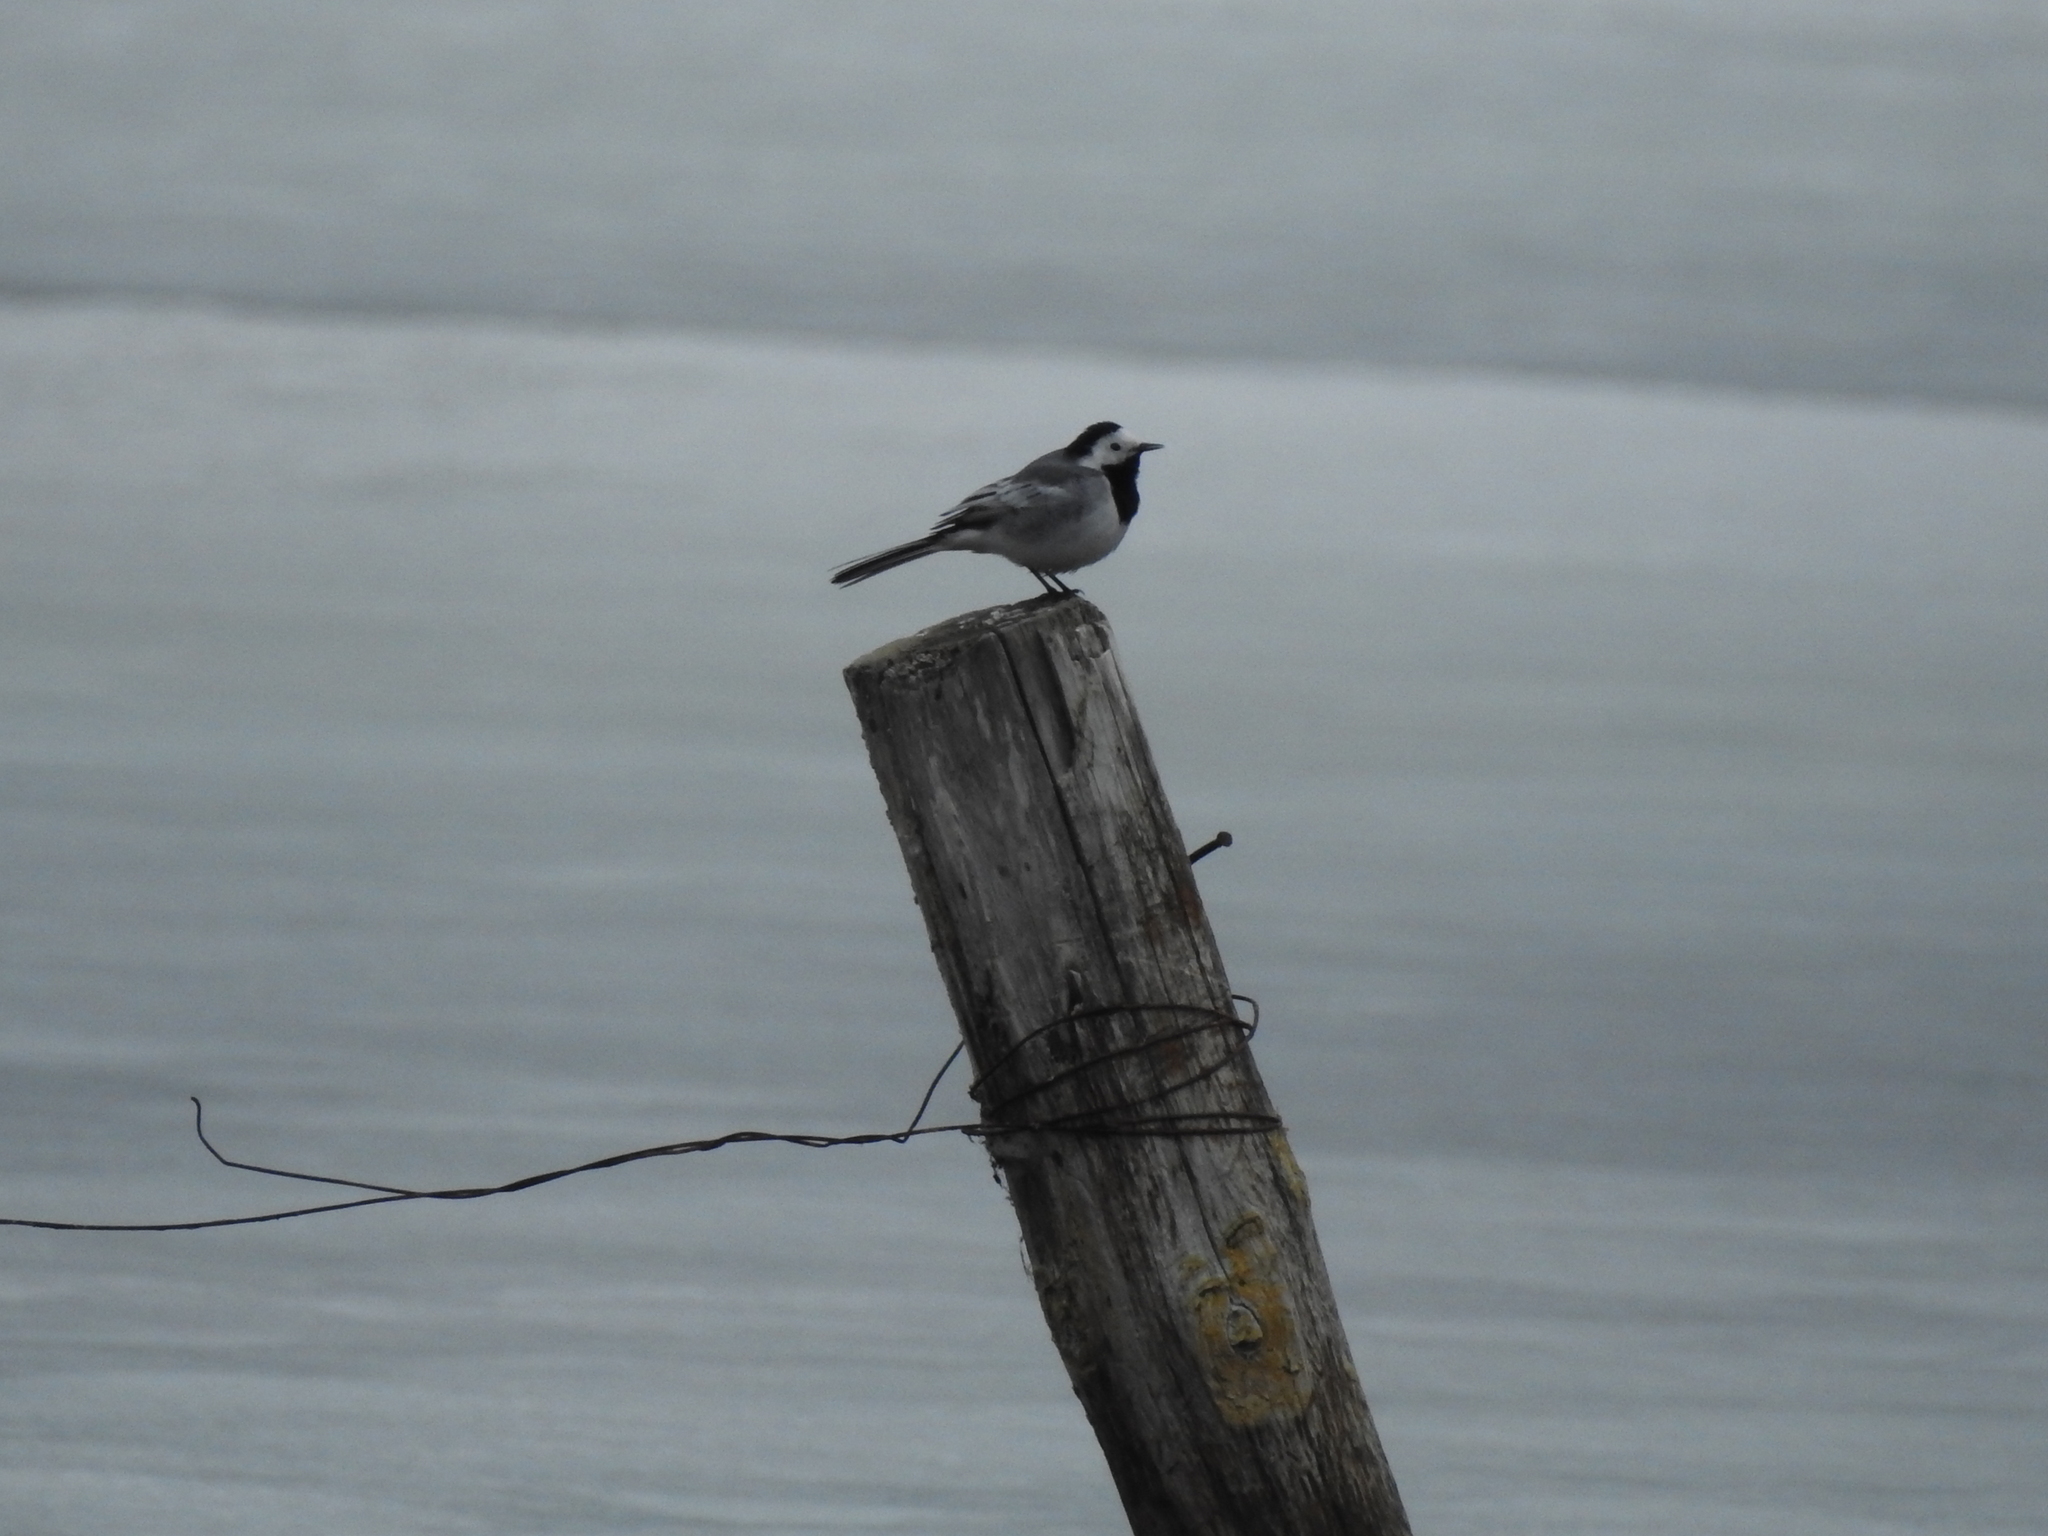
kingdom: Animalia
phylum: Chordata
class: Aves
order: Passeriformes
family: Motacillidae
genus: Motacilla
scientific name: Motacilla alba
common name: White wagtail
